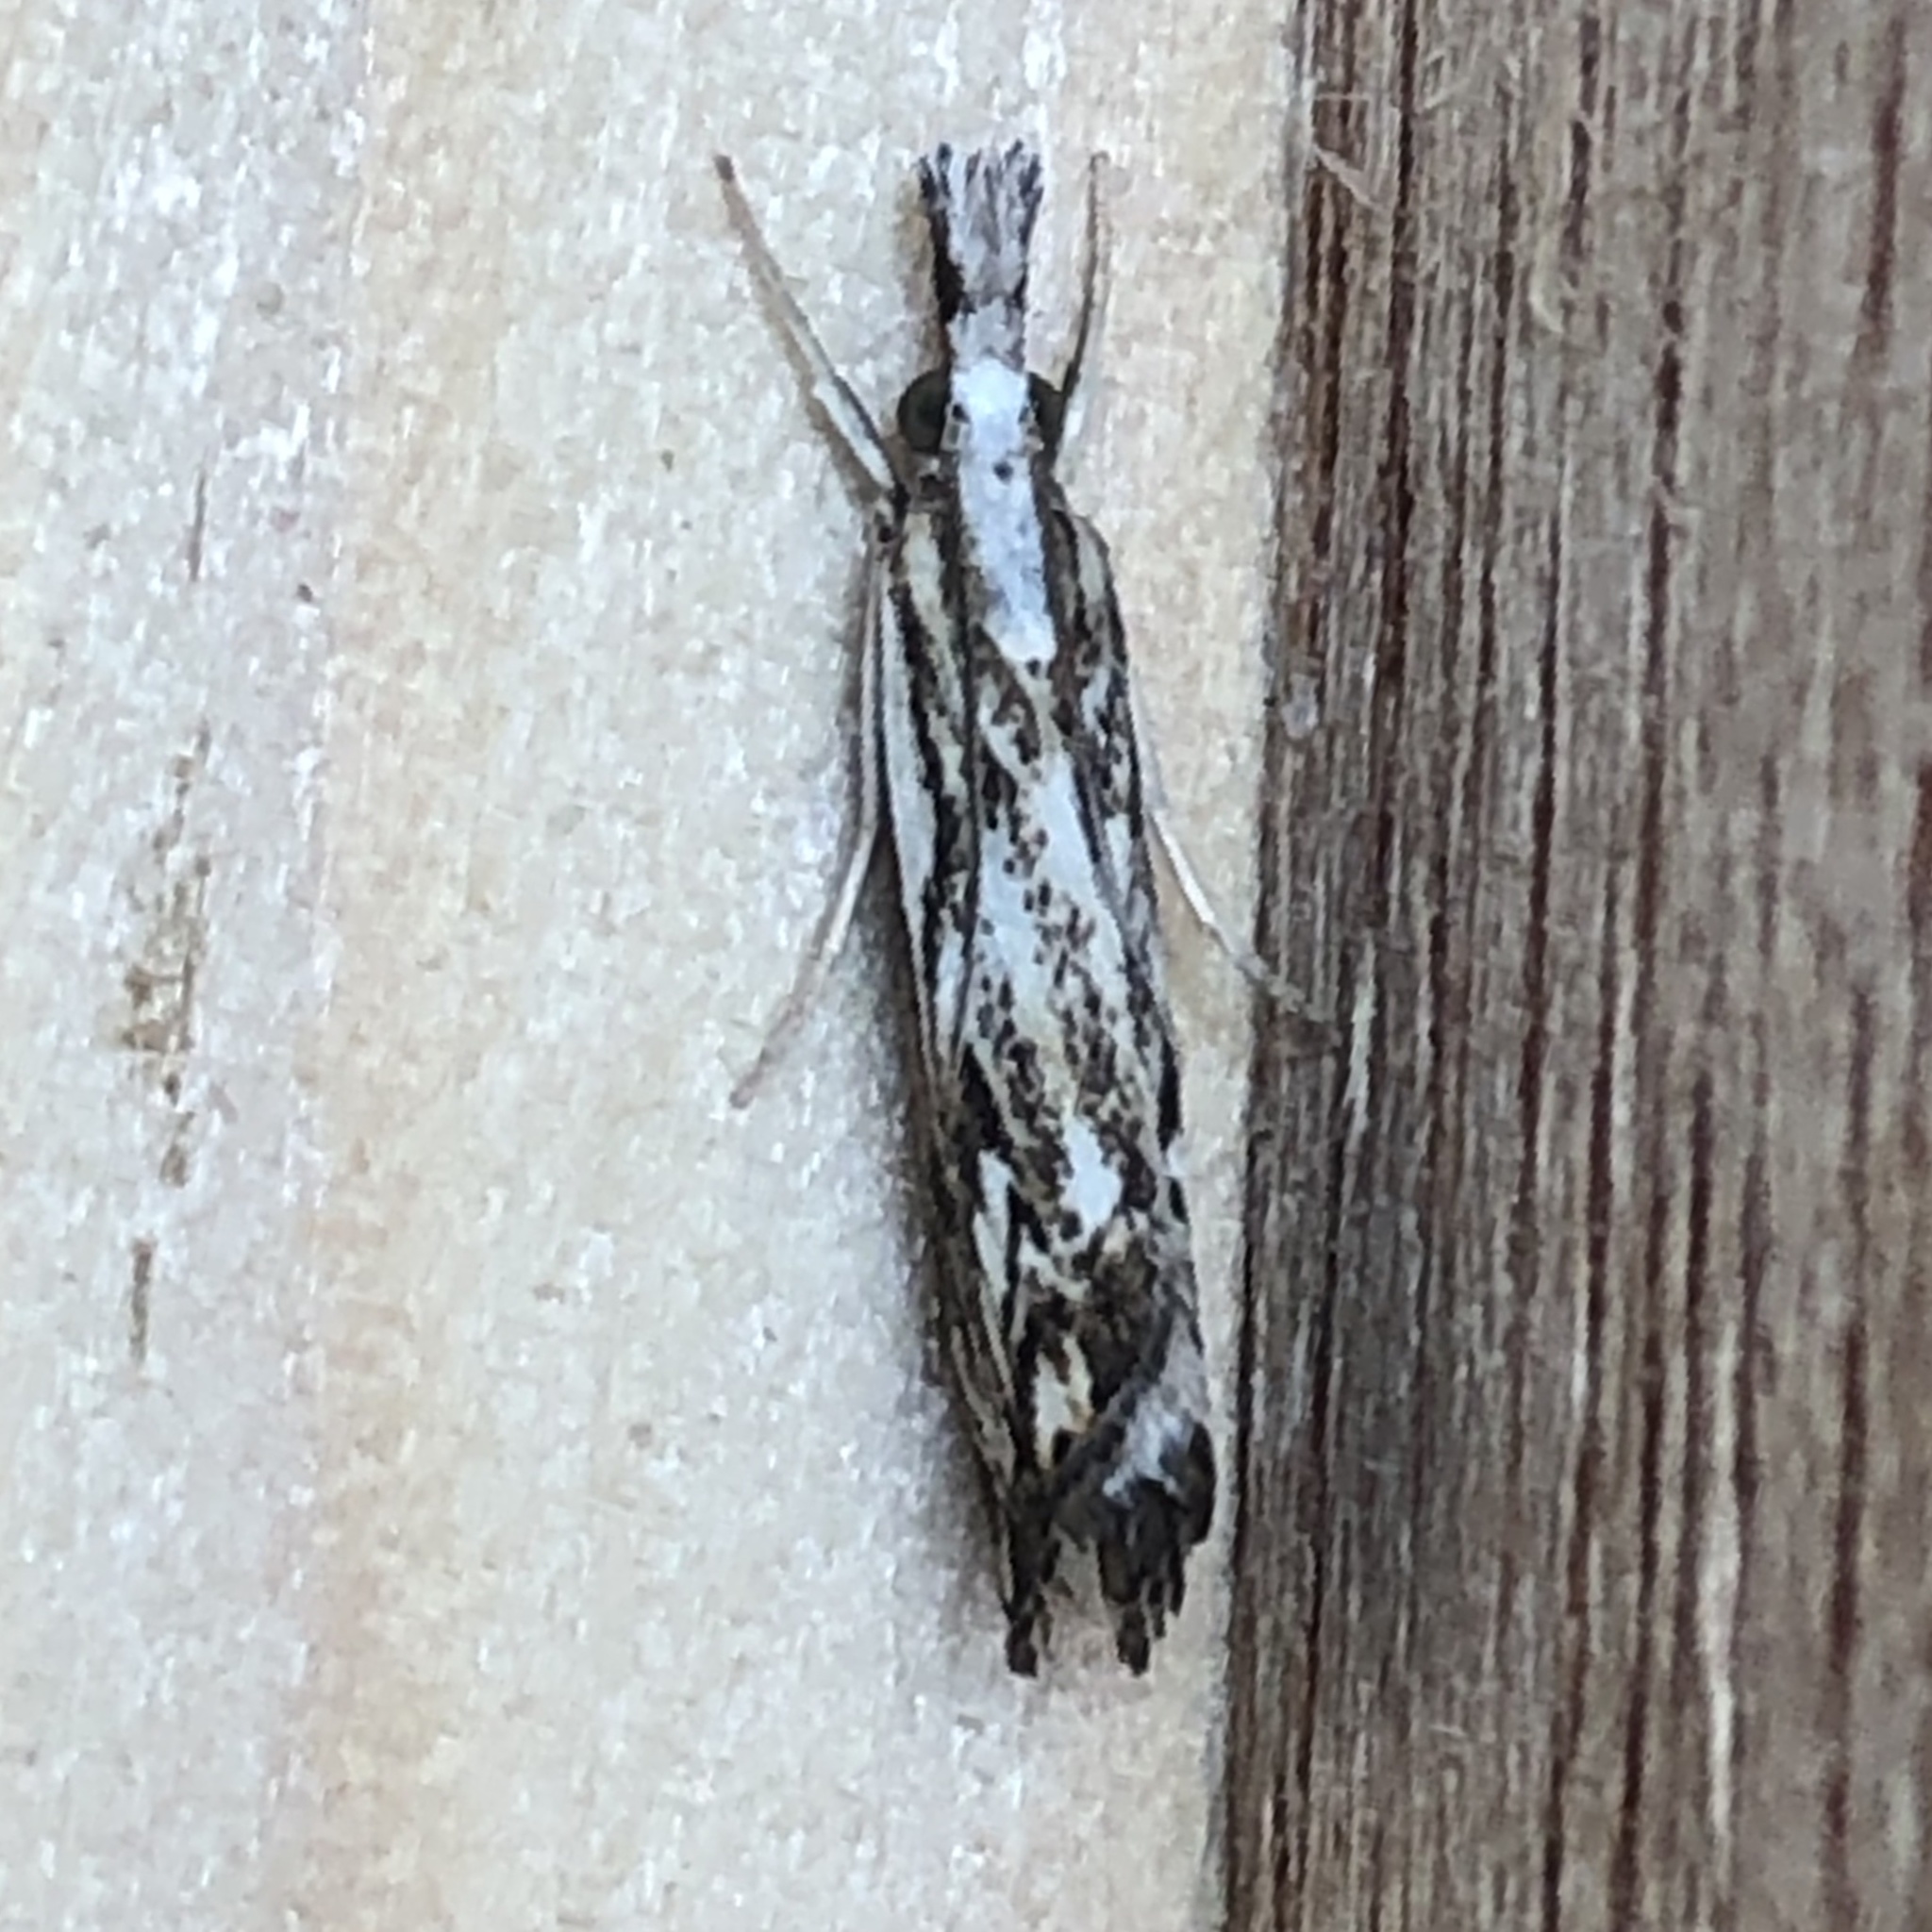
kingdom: Animalia
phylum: Arthropoda
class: Insecta
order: Lepidoptera
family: Crambidae
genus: Catoptria
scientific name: Catoptria falsella
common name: Chequered grass-veneer
